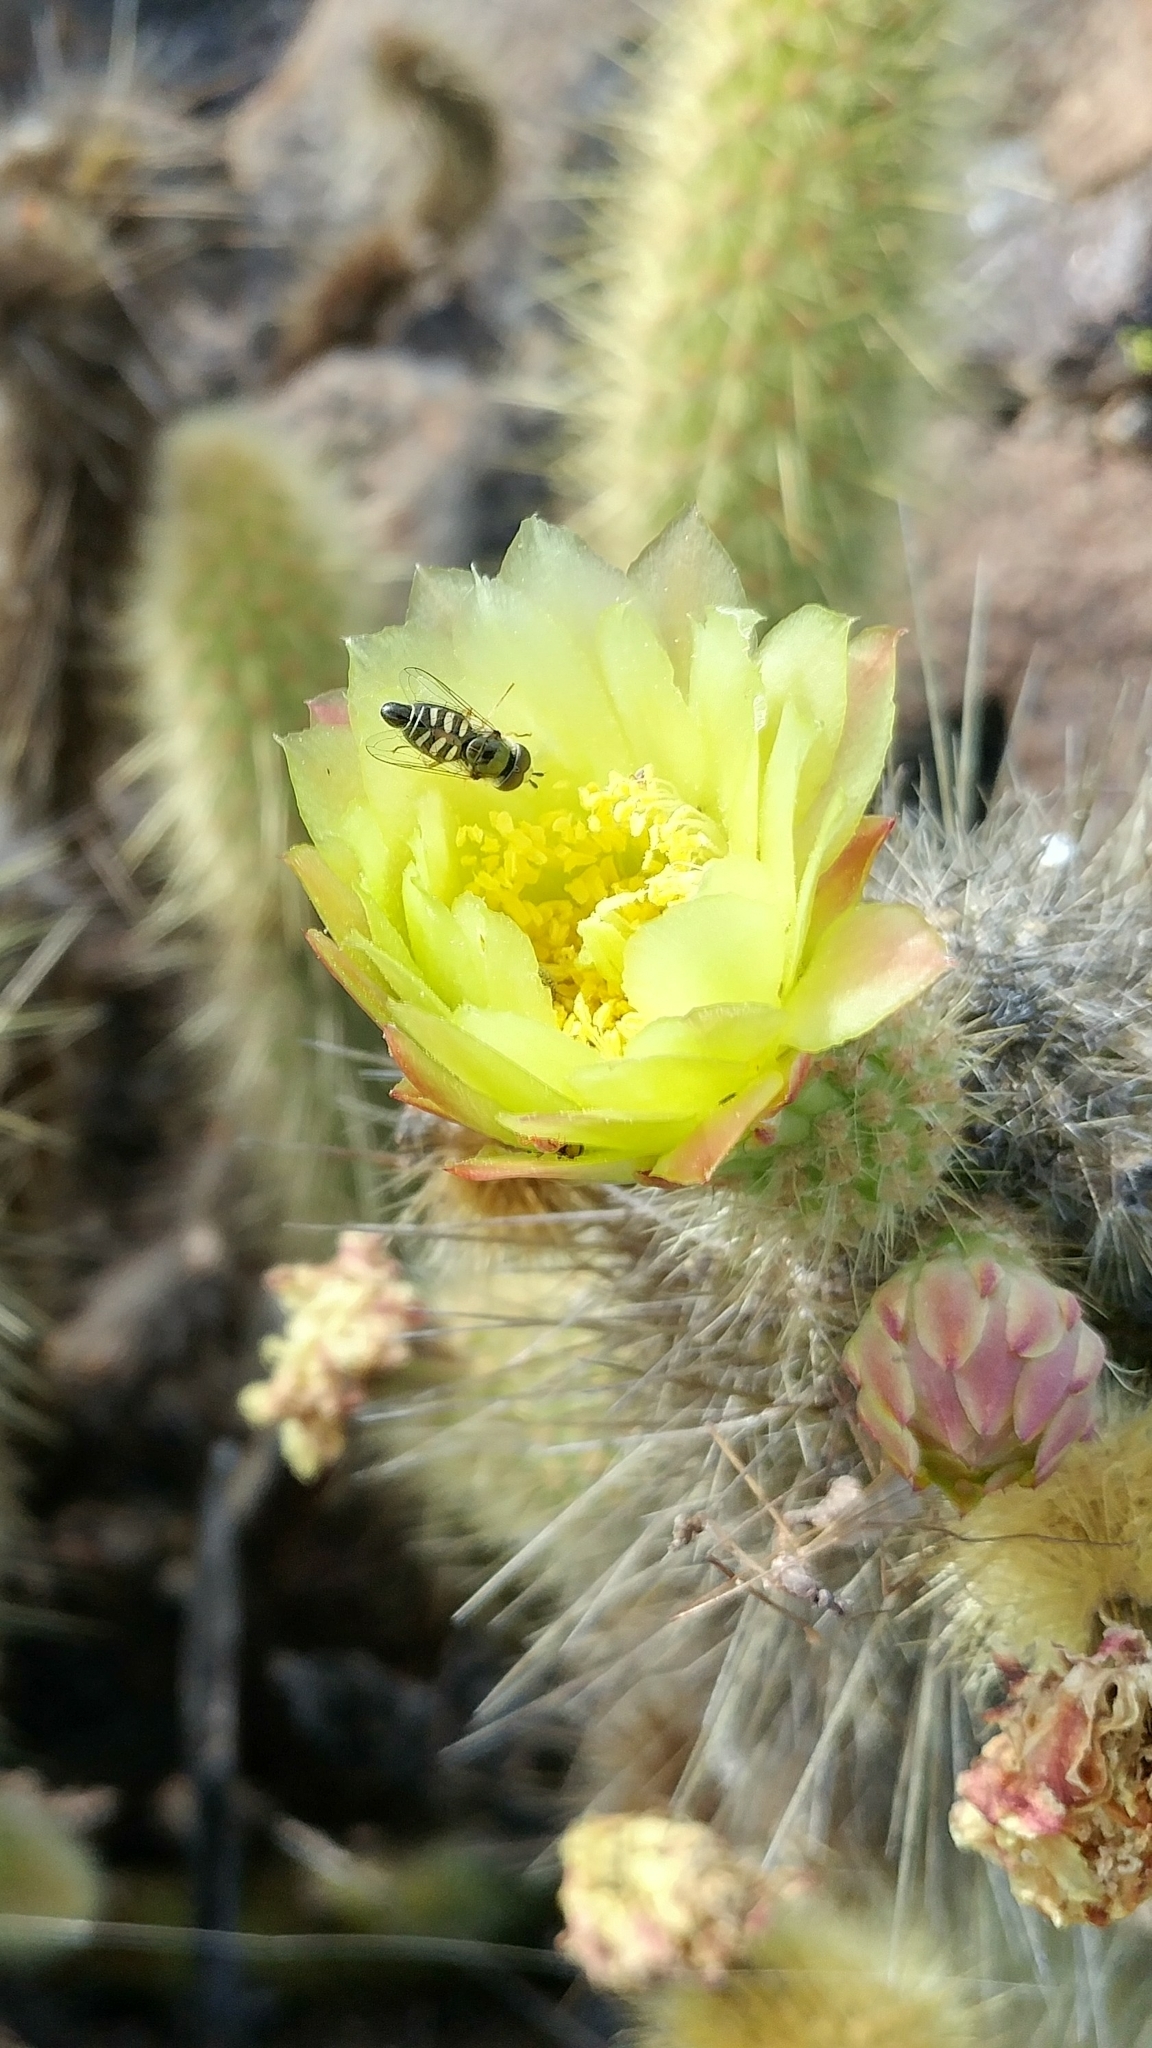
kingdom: Animalia
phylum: Arthropoda
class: Insecta
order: Diptera
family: Syrphidae
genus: Eupeodes
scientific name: Eupeodes volucris
